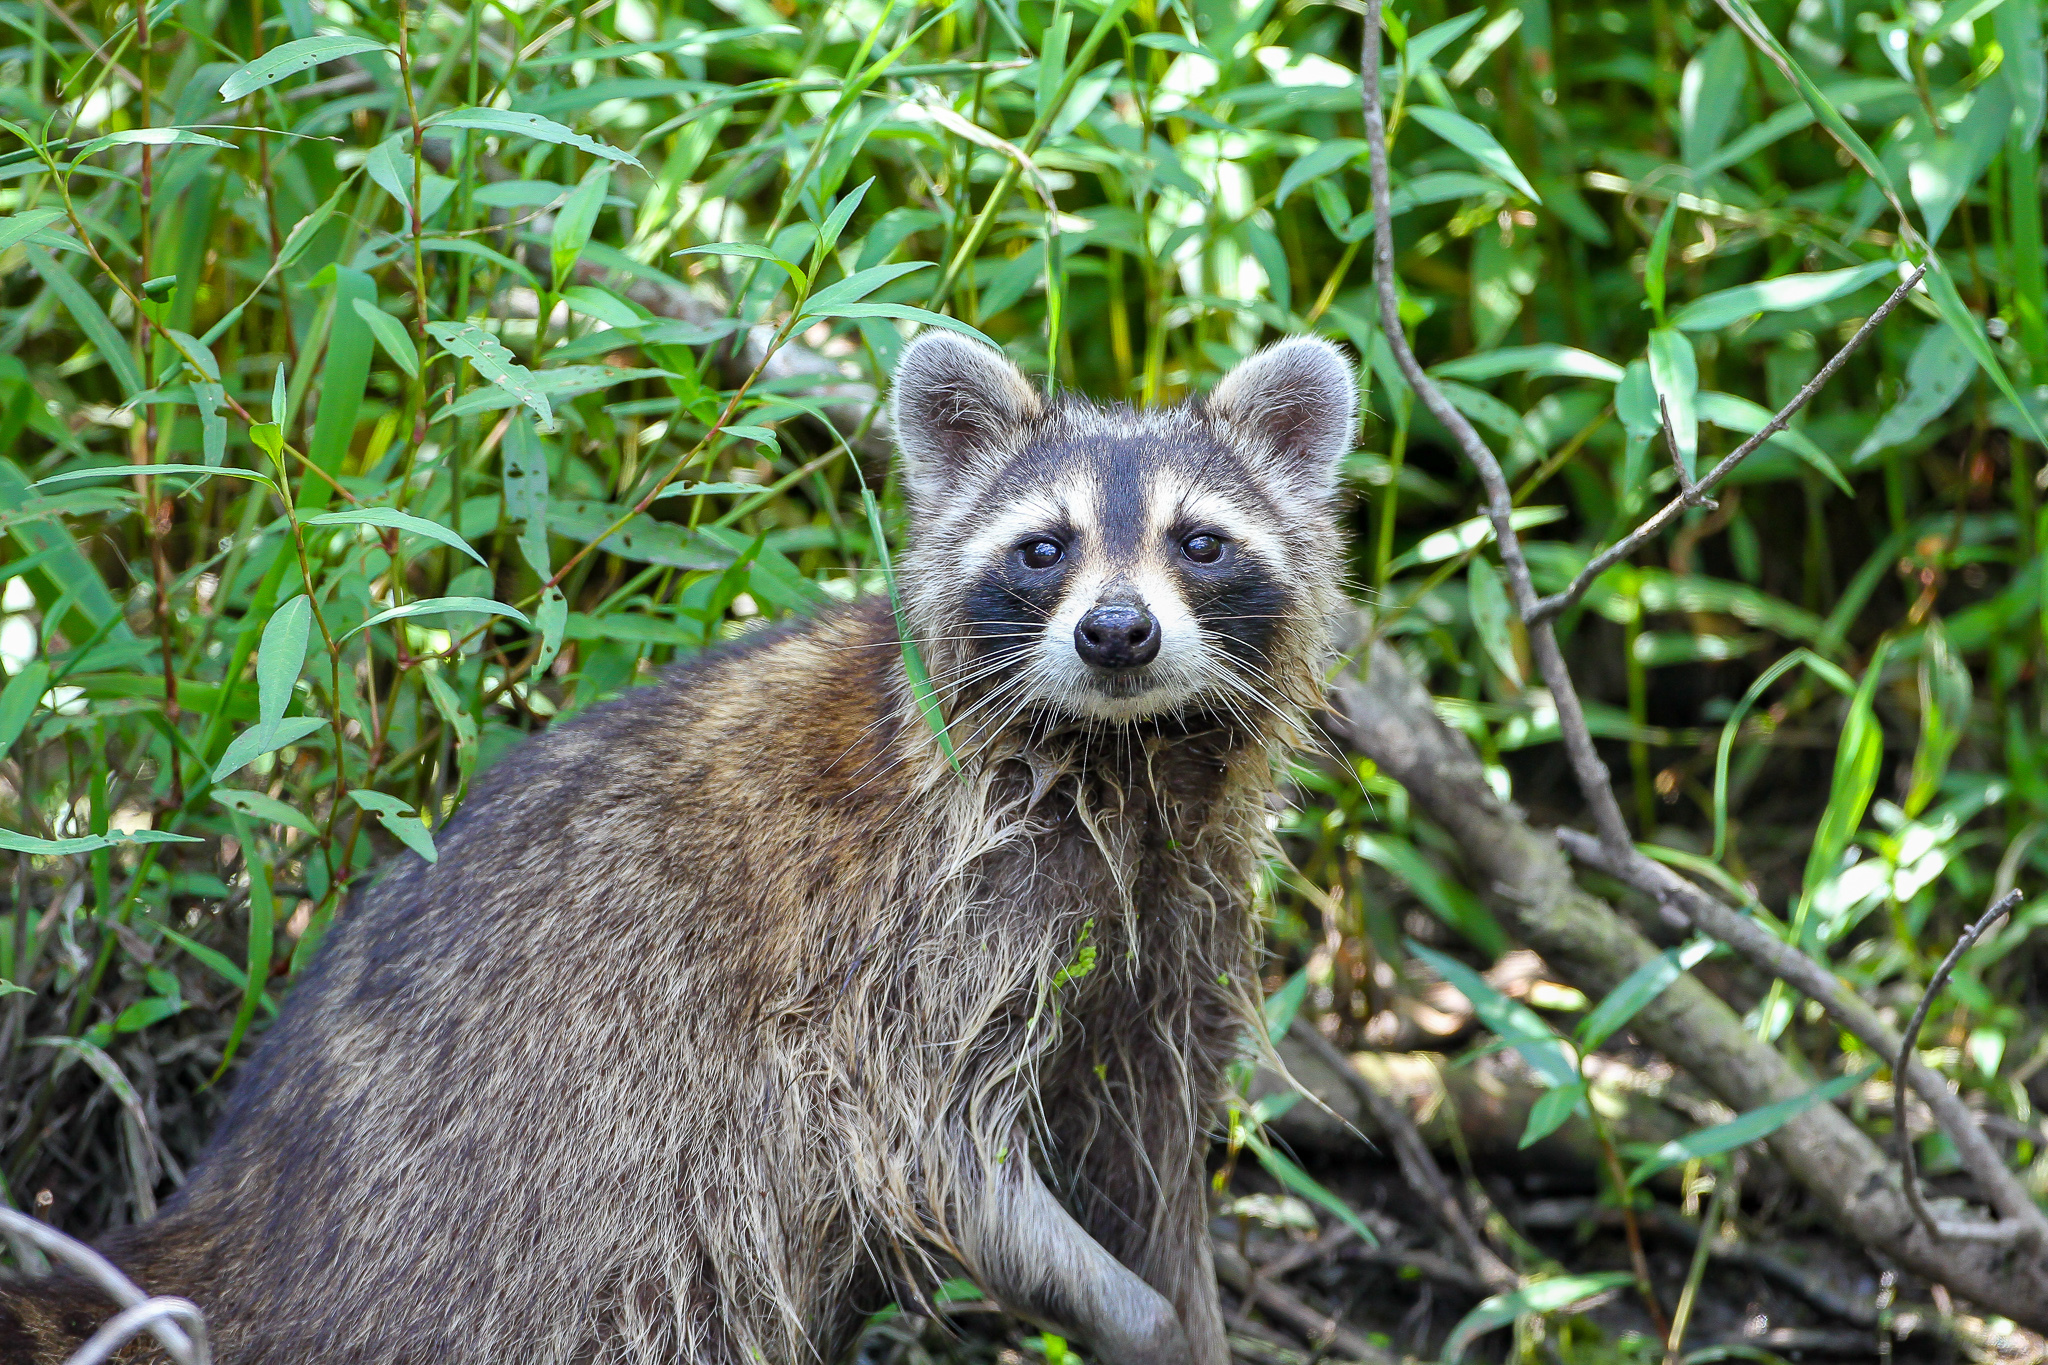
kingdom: Animalia
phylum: Chordata
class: Mammalia
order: Carnivora
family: Procyonidae
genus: Procyon
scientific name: Procyon lotor
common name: Raccoon
